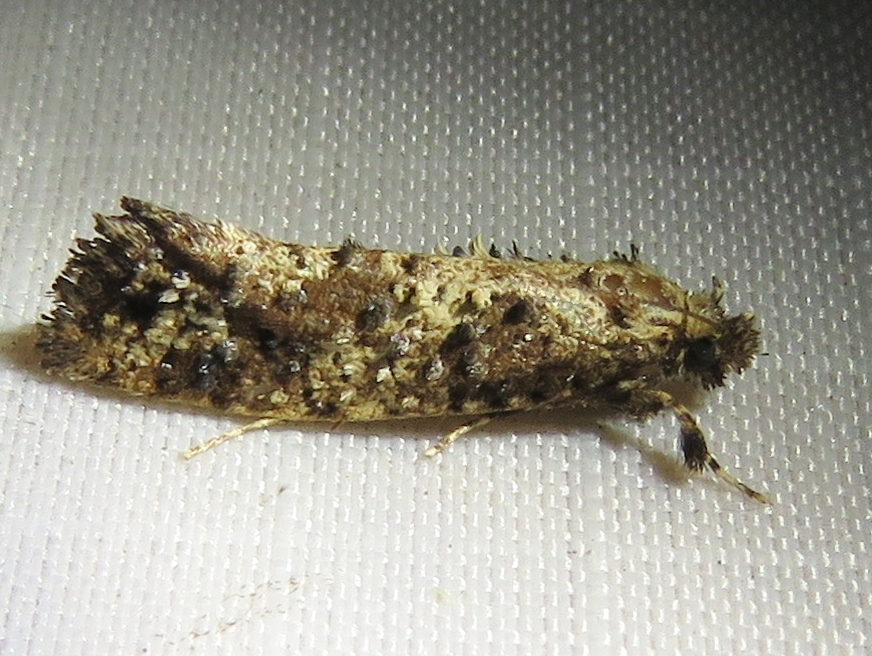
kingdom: Animalia
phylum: Arthropoda
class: Insecta
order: Lepidoptera
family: Tineidae
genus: Acrolophus
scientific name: Acrolophus cressoni
